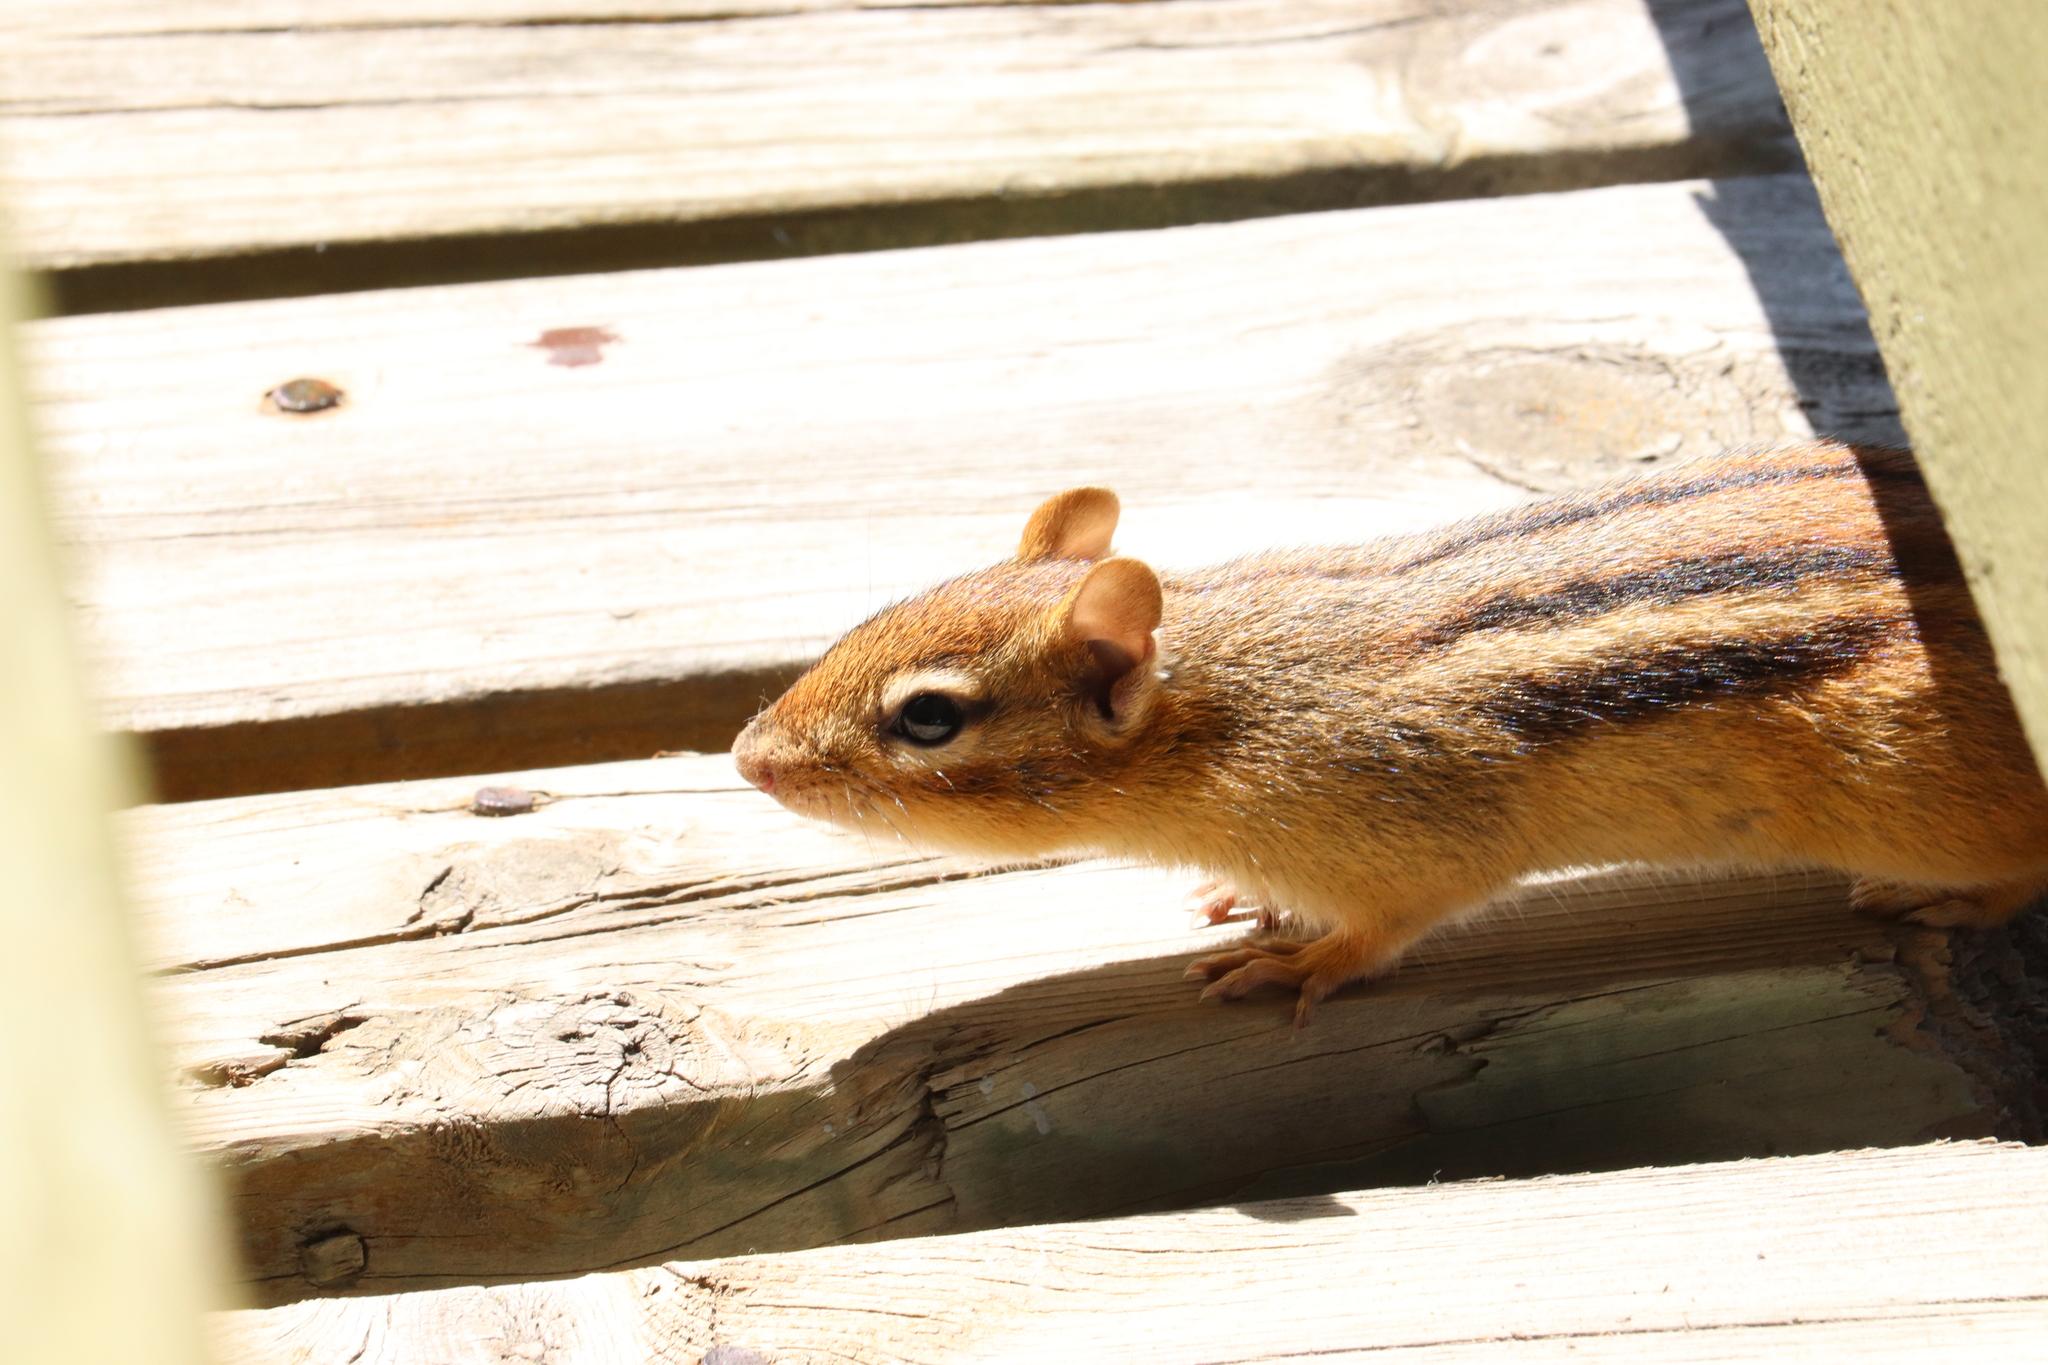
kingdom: Animalia
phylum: Chordata
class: Mammalia
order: Rodentia
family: Sciuridae
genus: Tamias
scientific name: Tamias striatus
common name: Eastern chipmunk
